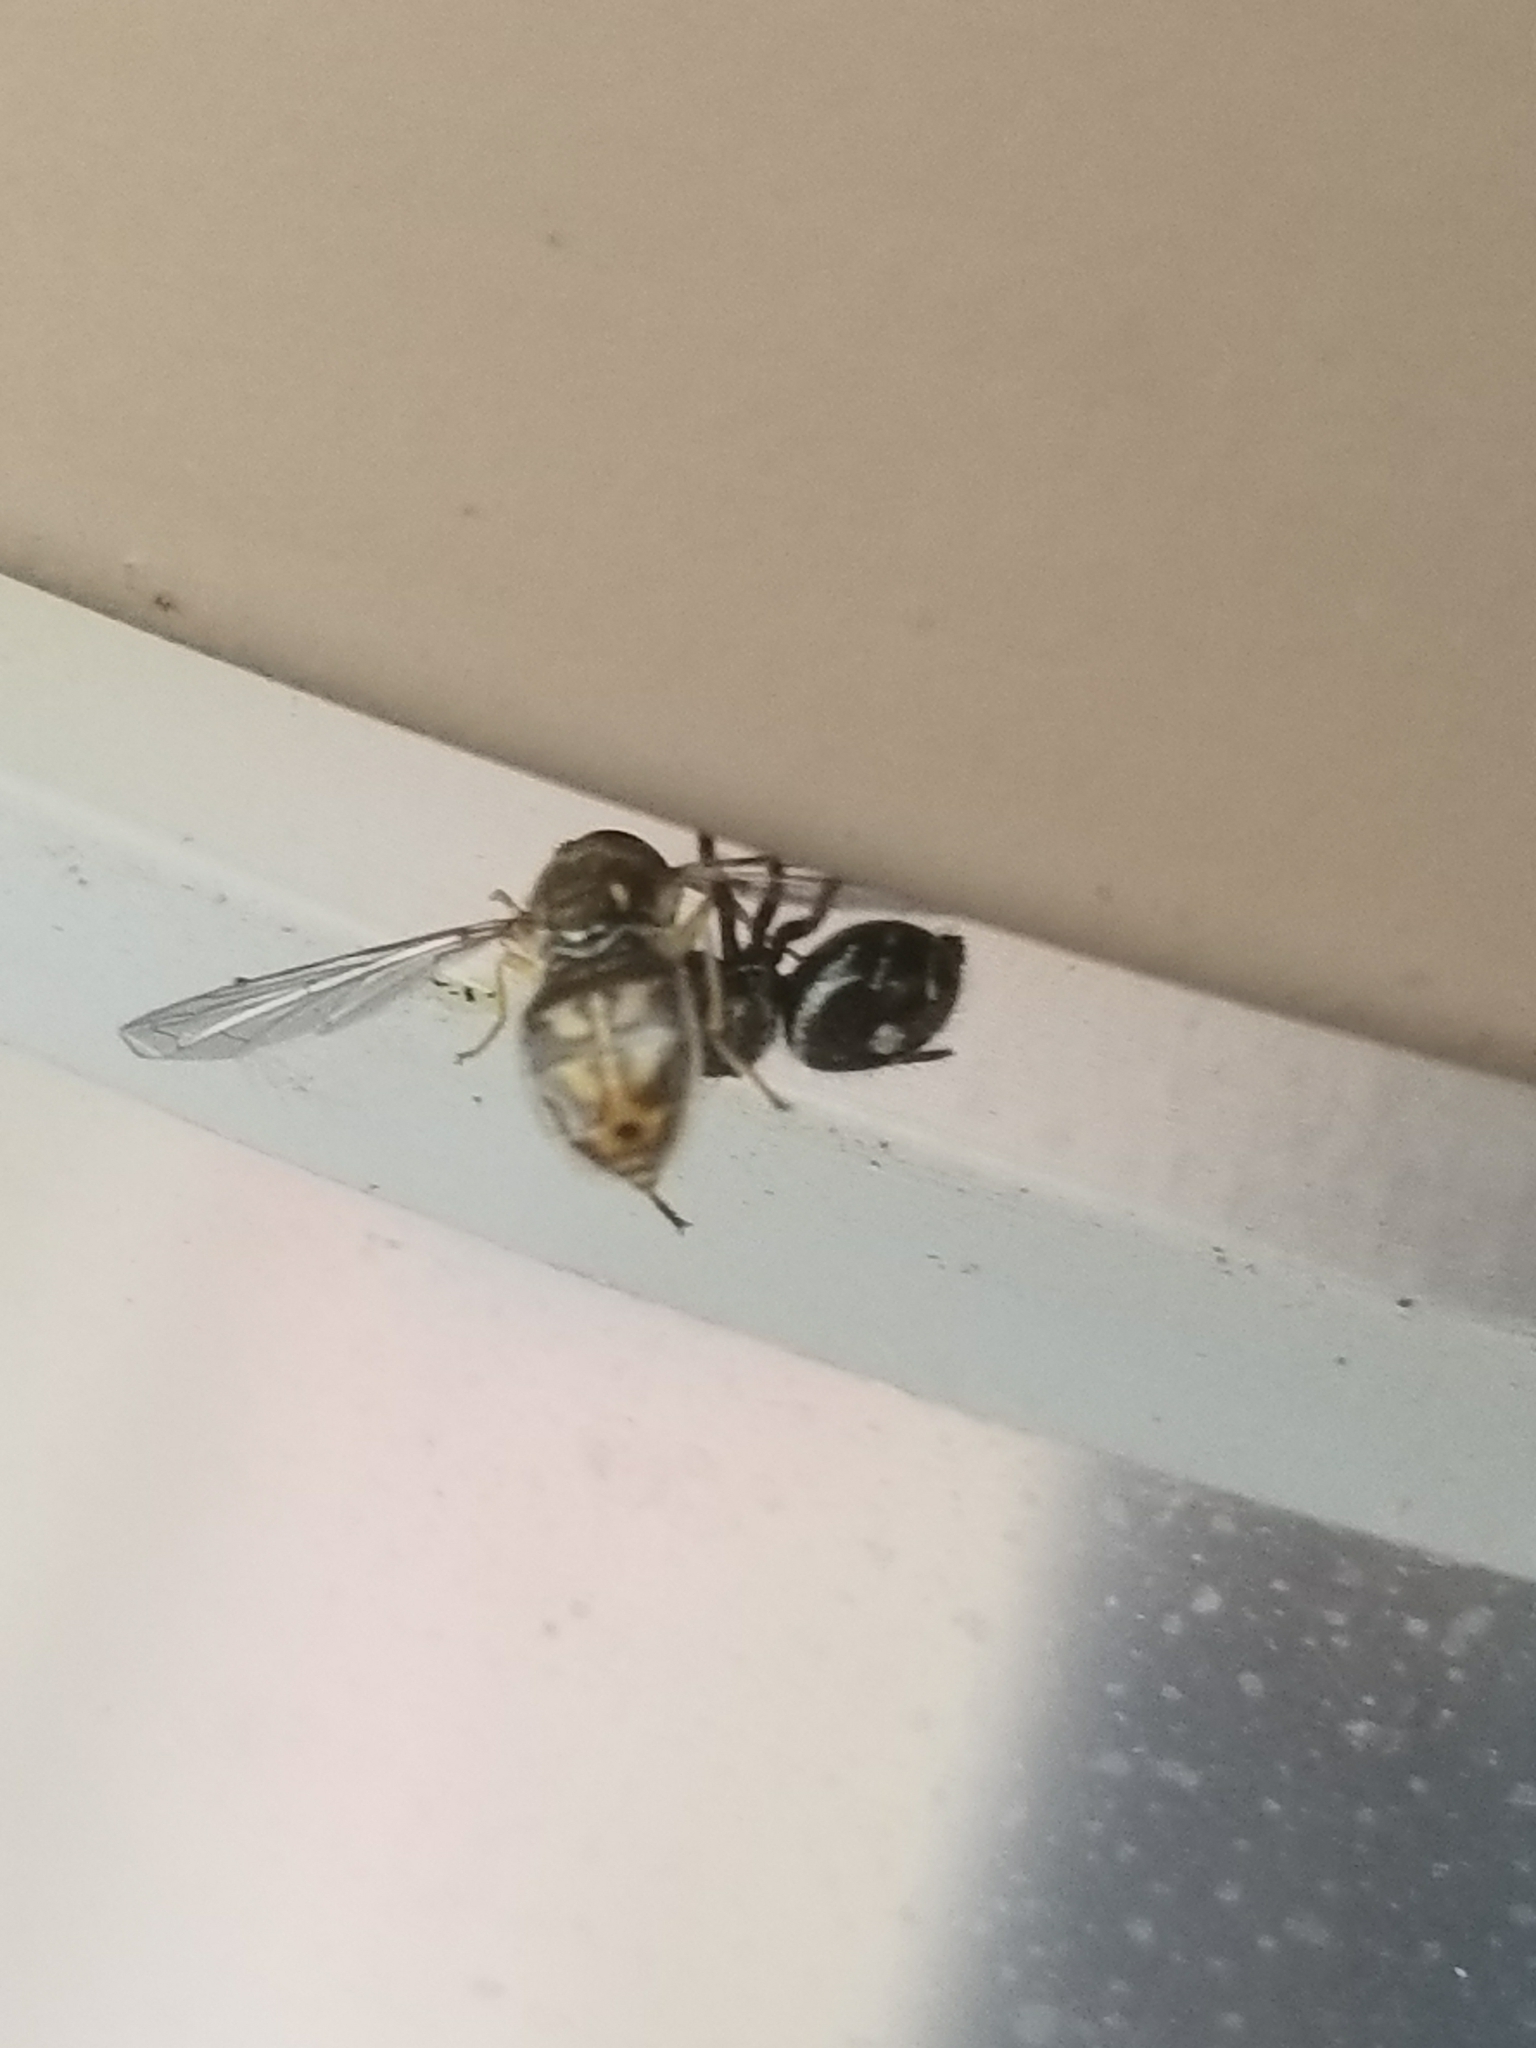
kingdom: Animalia
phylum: Arthropoda
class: Arachnida
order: Araneae
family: Salticidae
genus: Phidippus
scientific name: Phidippus audax
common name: Bold jumper
